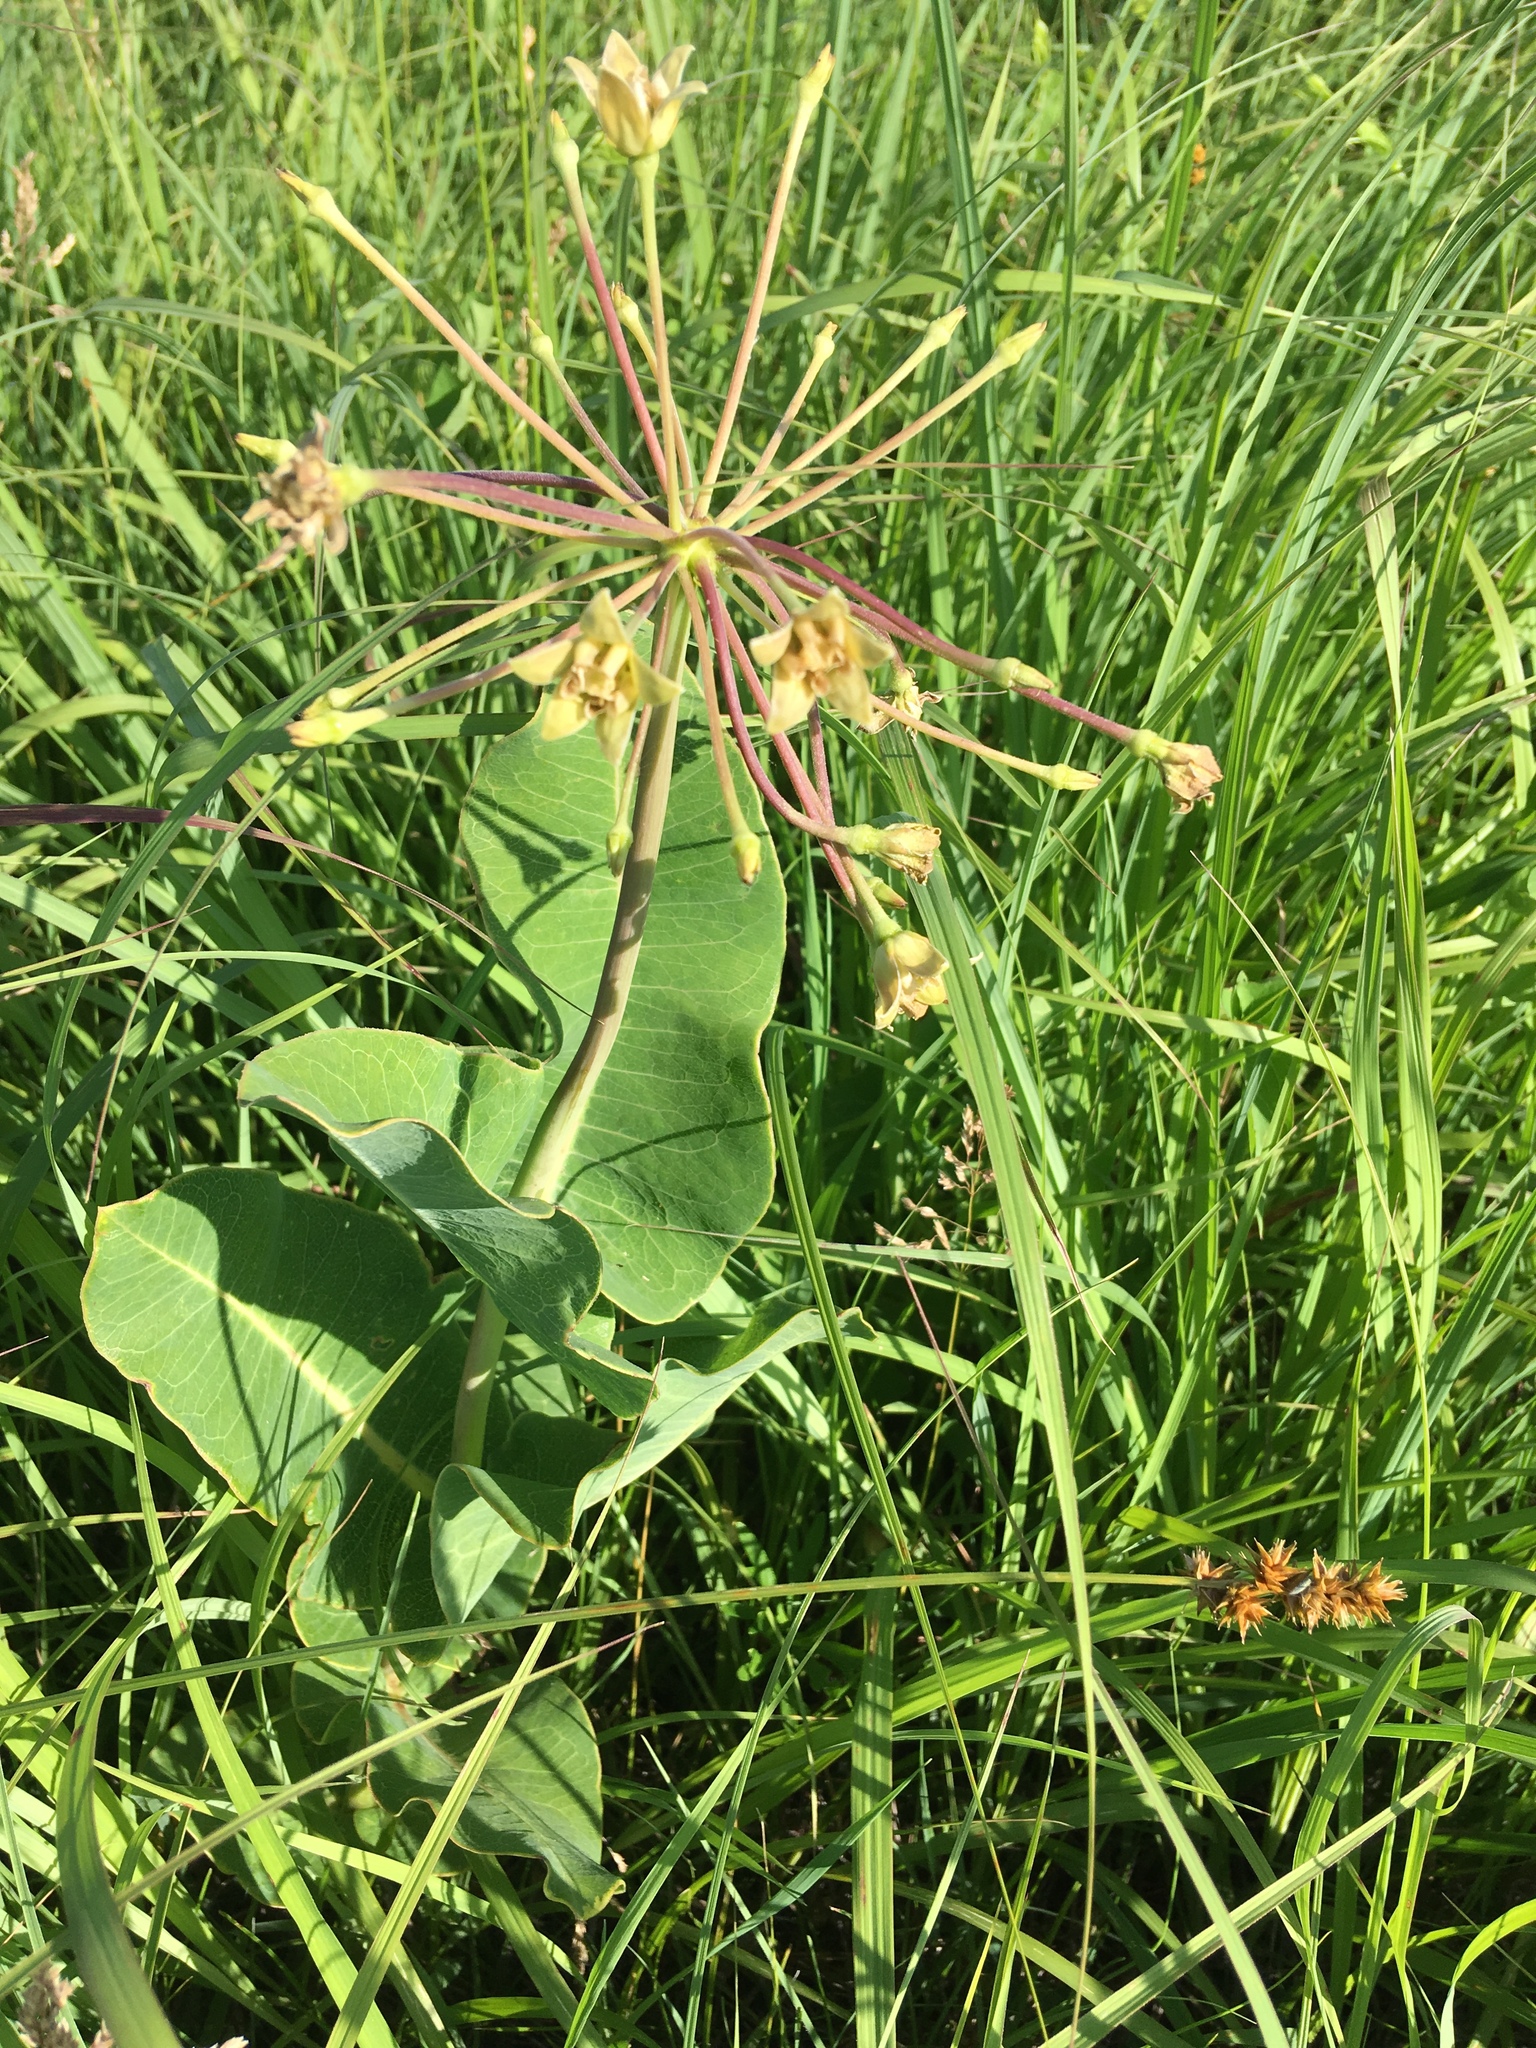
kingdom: Plantae
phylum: Tracheophyta
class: Magnoliopsida
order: Gentianales
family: Apocynaceae
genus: Asclepias
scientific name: Asclepias amplexicaulis
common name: Blunt-leaf milkweed
